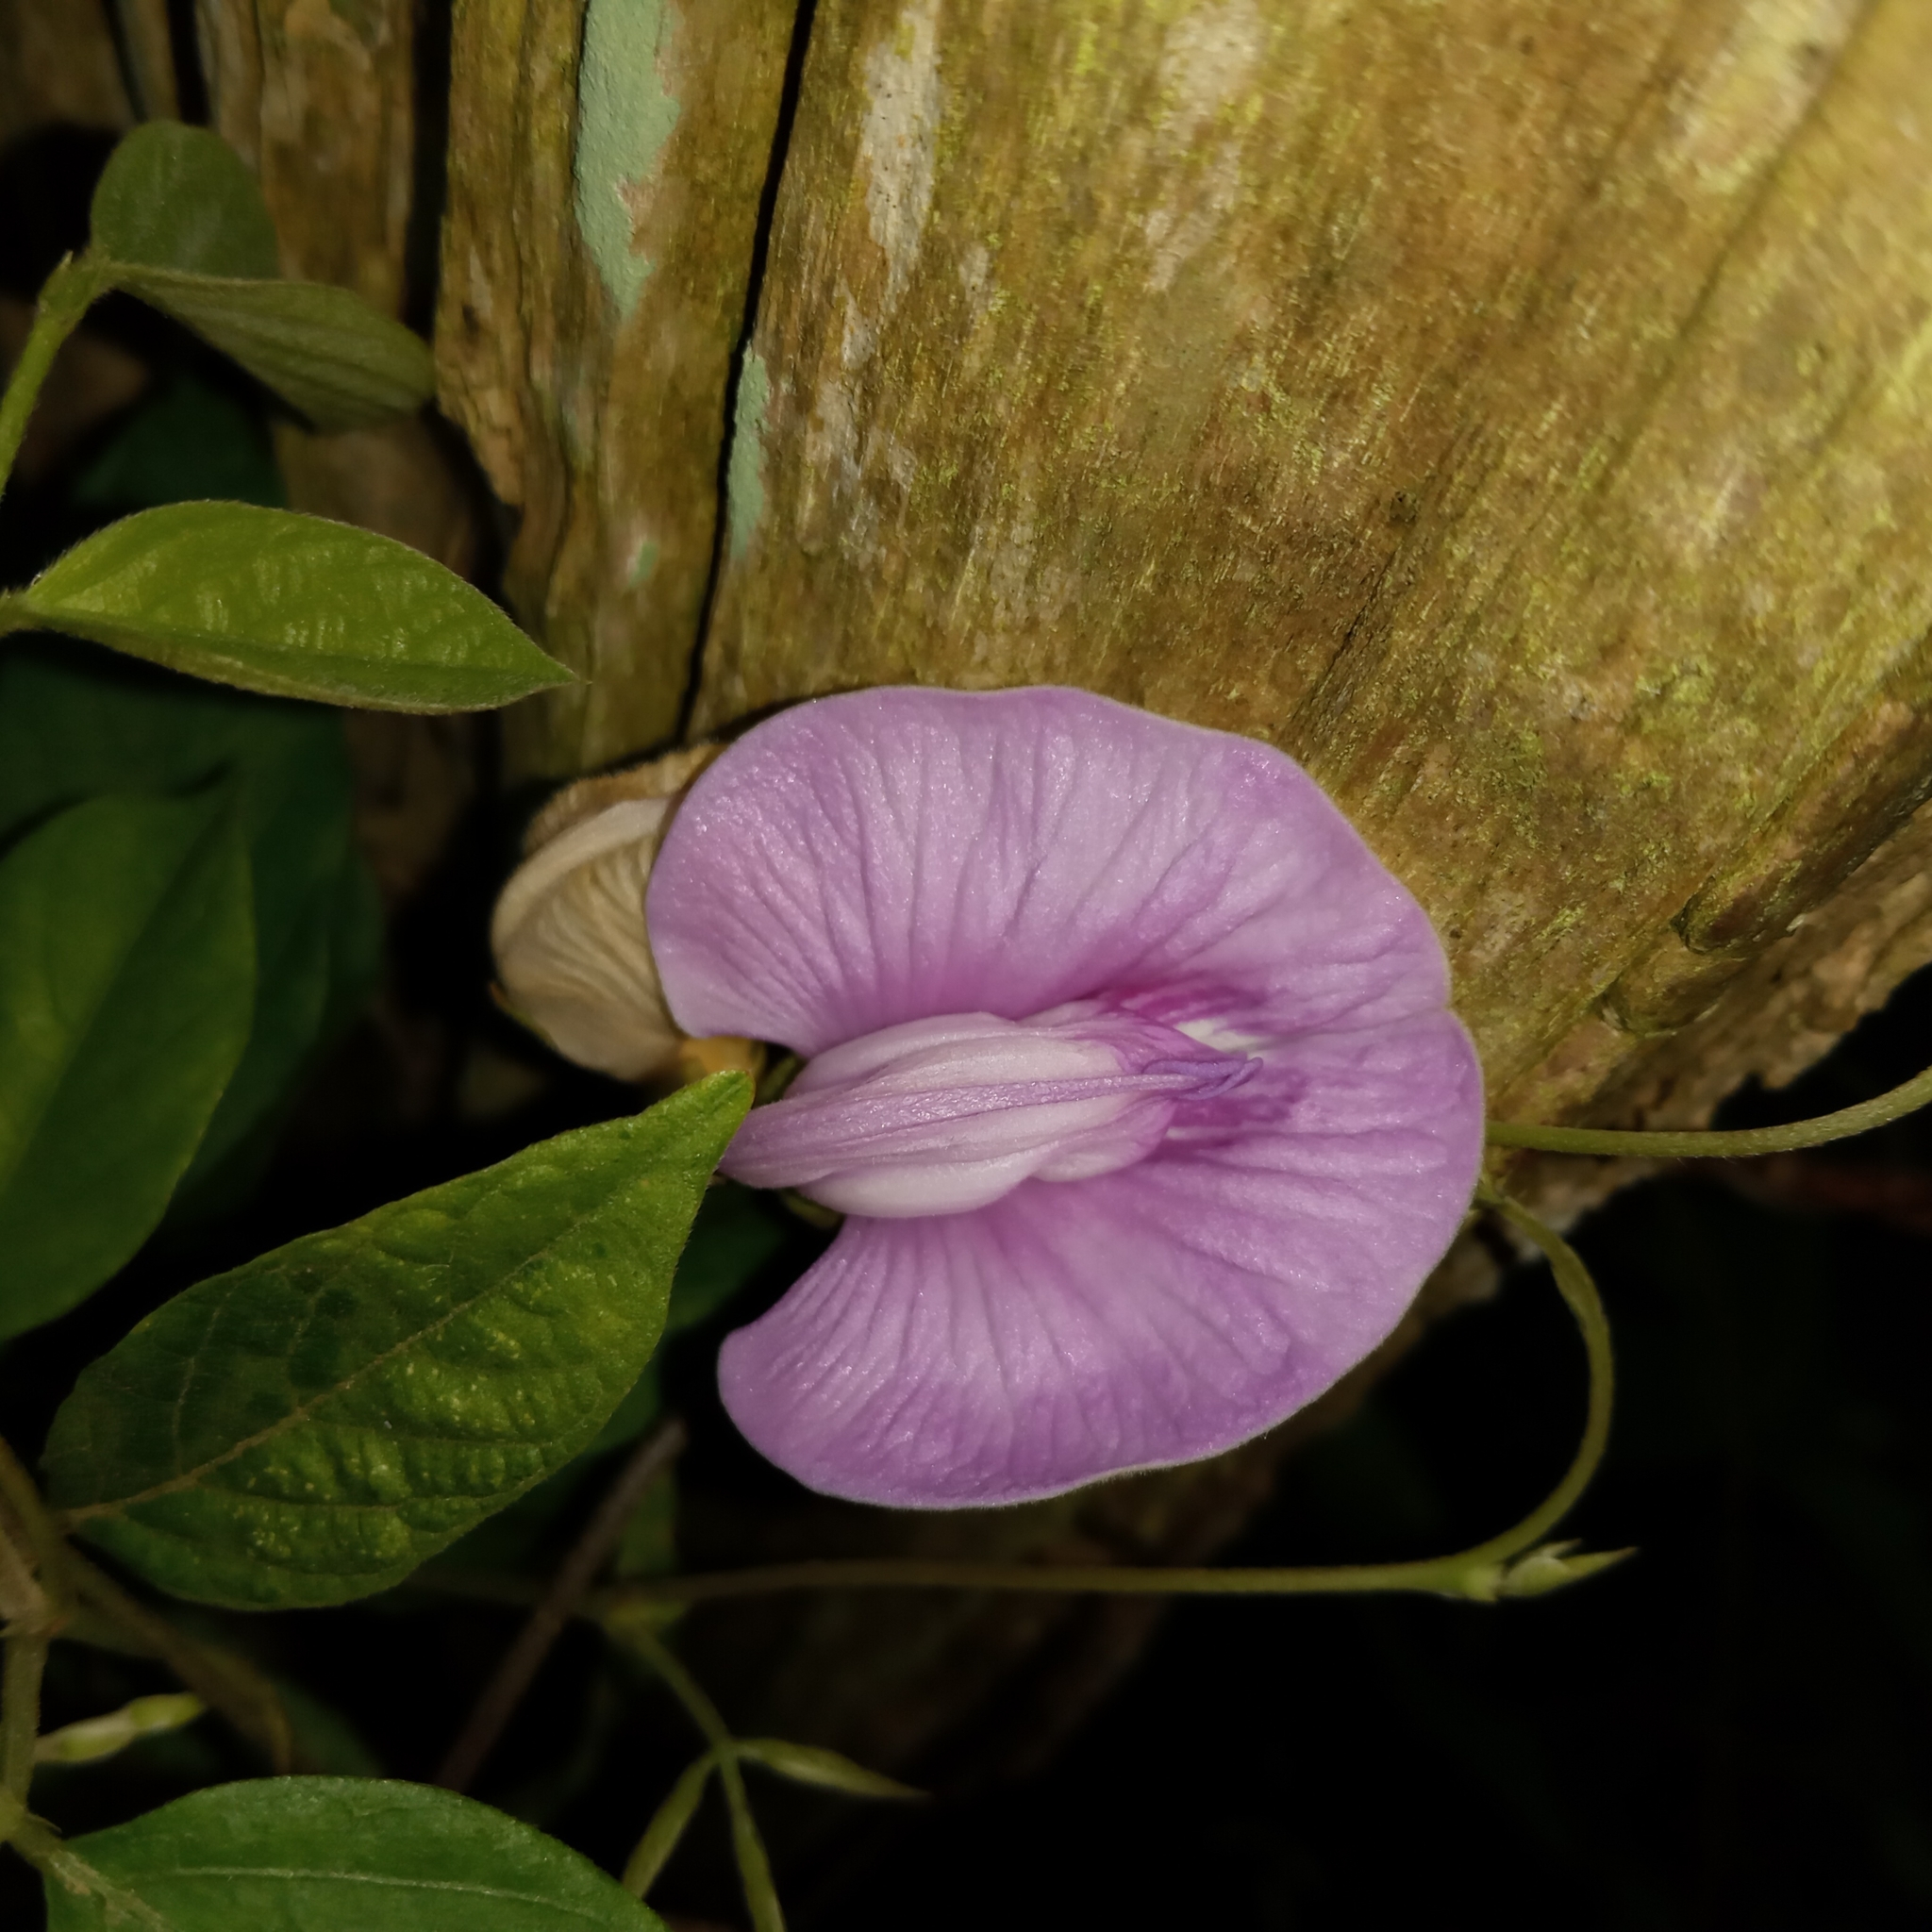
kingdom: Plantae
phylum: Tracheophyta
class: Magnoliopsida
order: Fabales
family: Fabaceae
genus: Centrosema
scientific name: Centrosema pubescens
